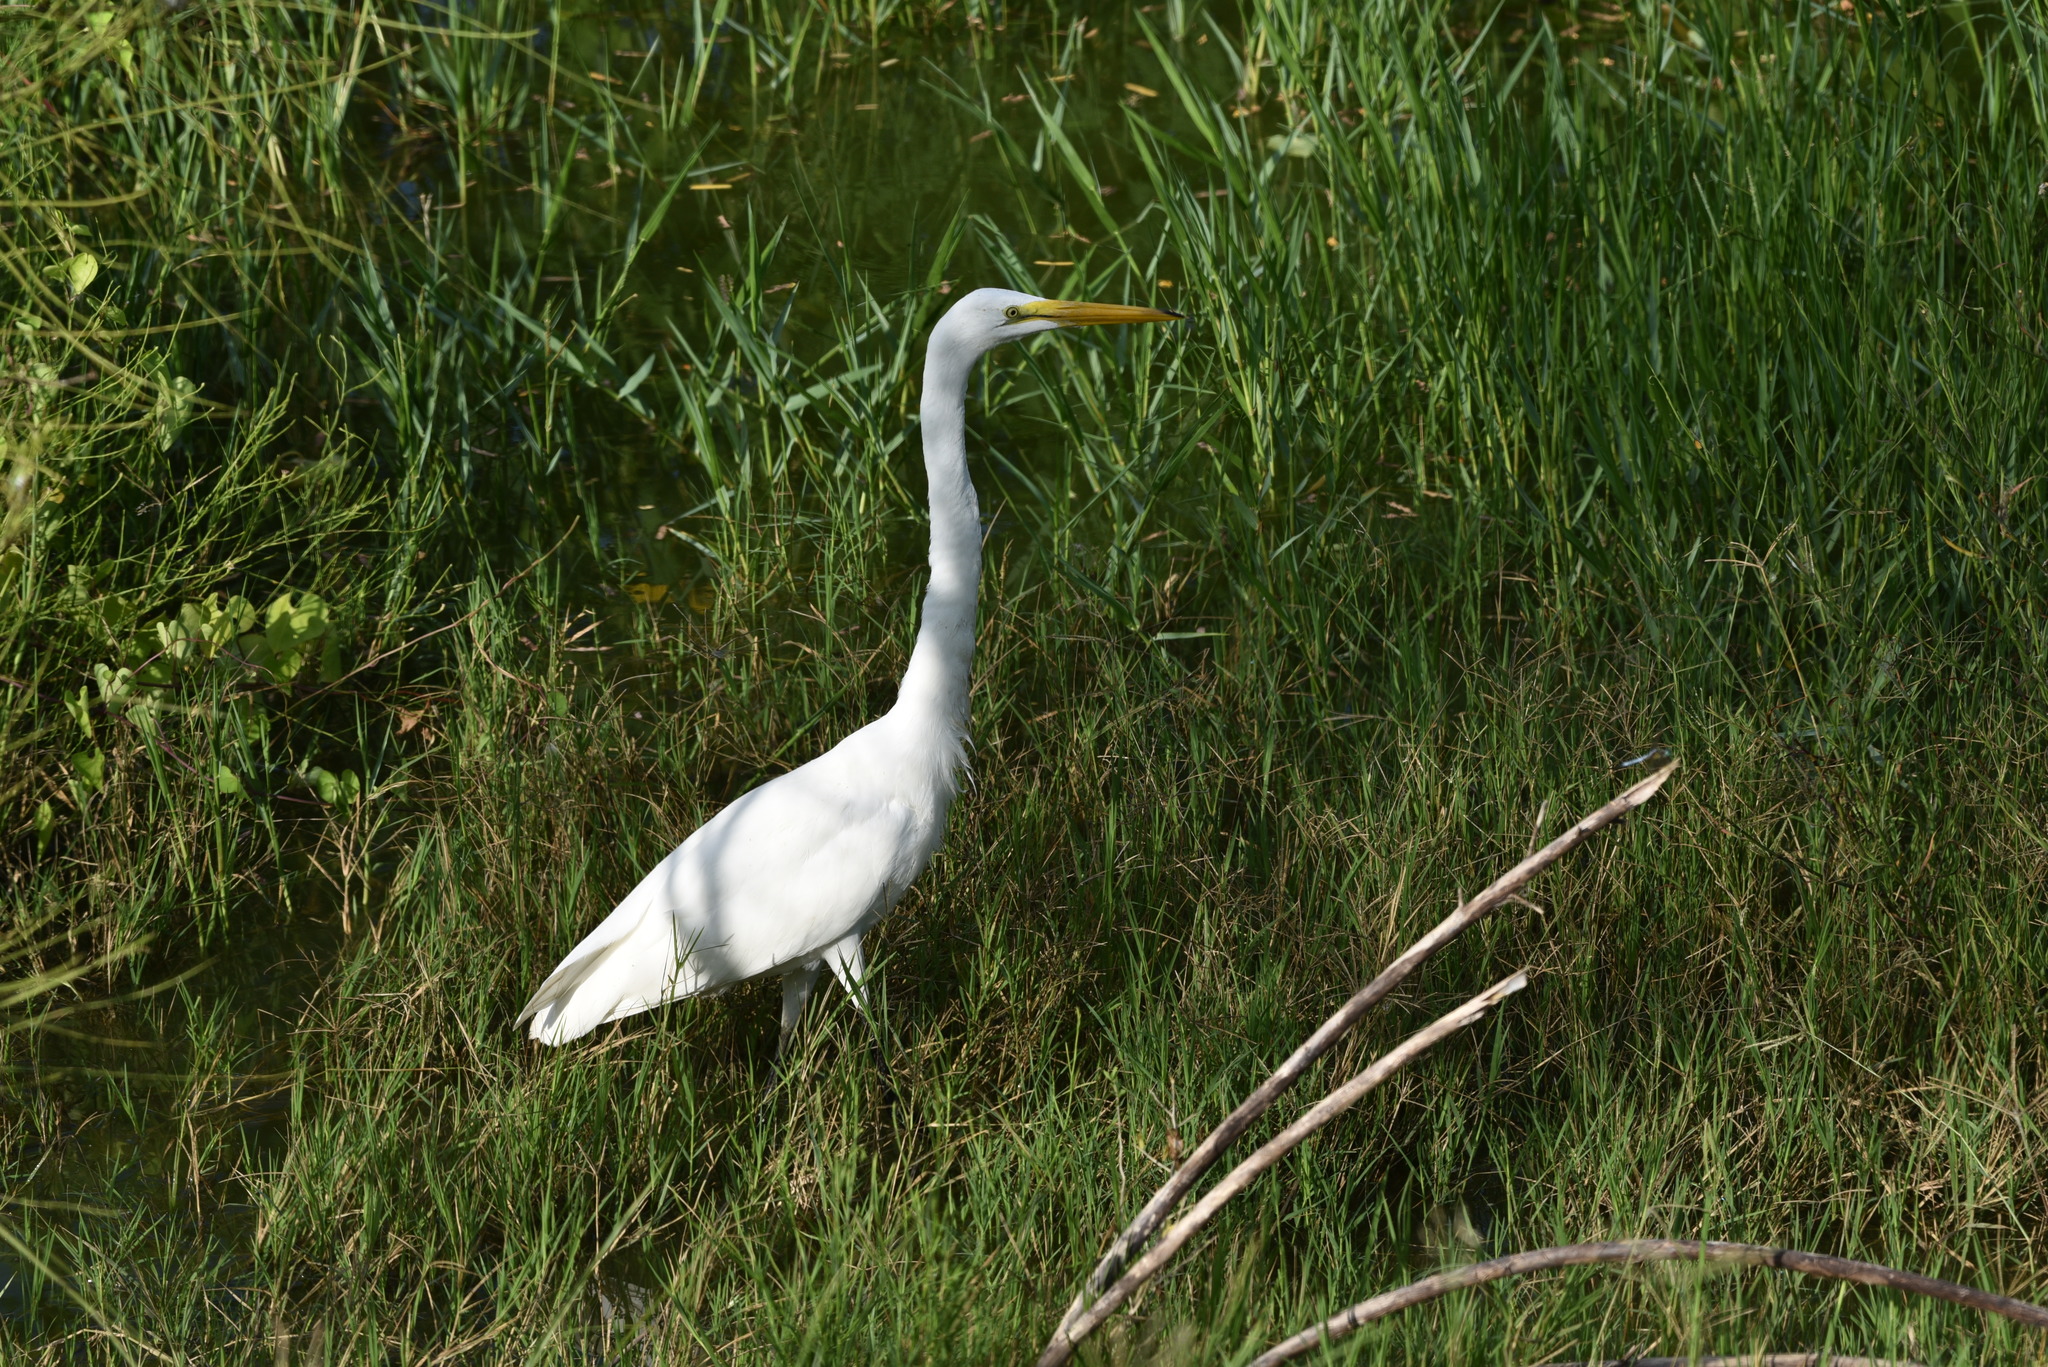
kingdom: Animalia
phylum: Chordata
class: Aves
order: Pelecaniformes
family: Ardeidae
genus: Ardea
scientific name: Ardea alba
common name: Great egret
